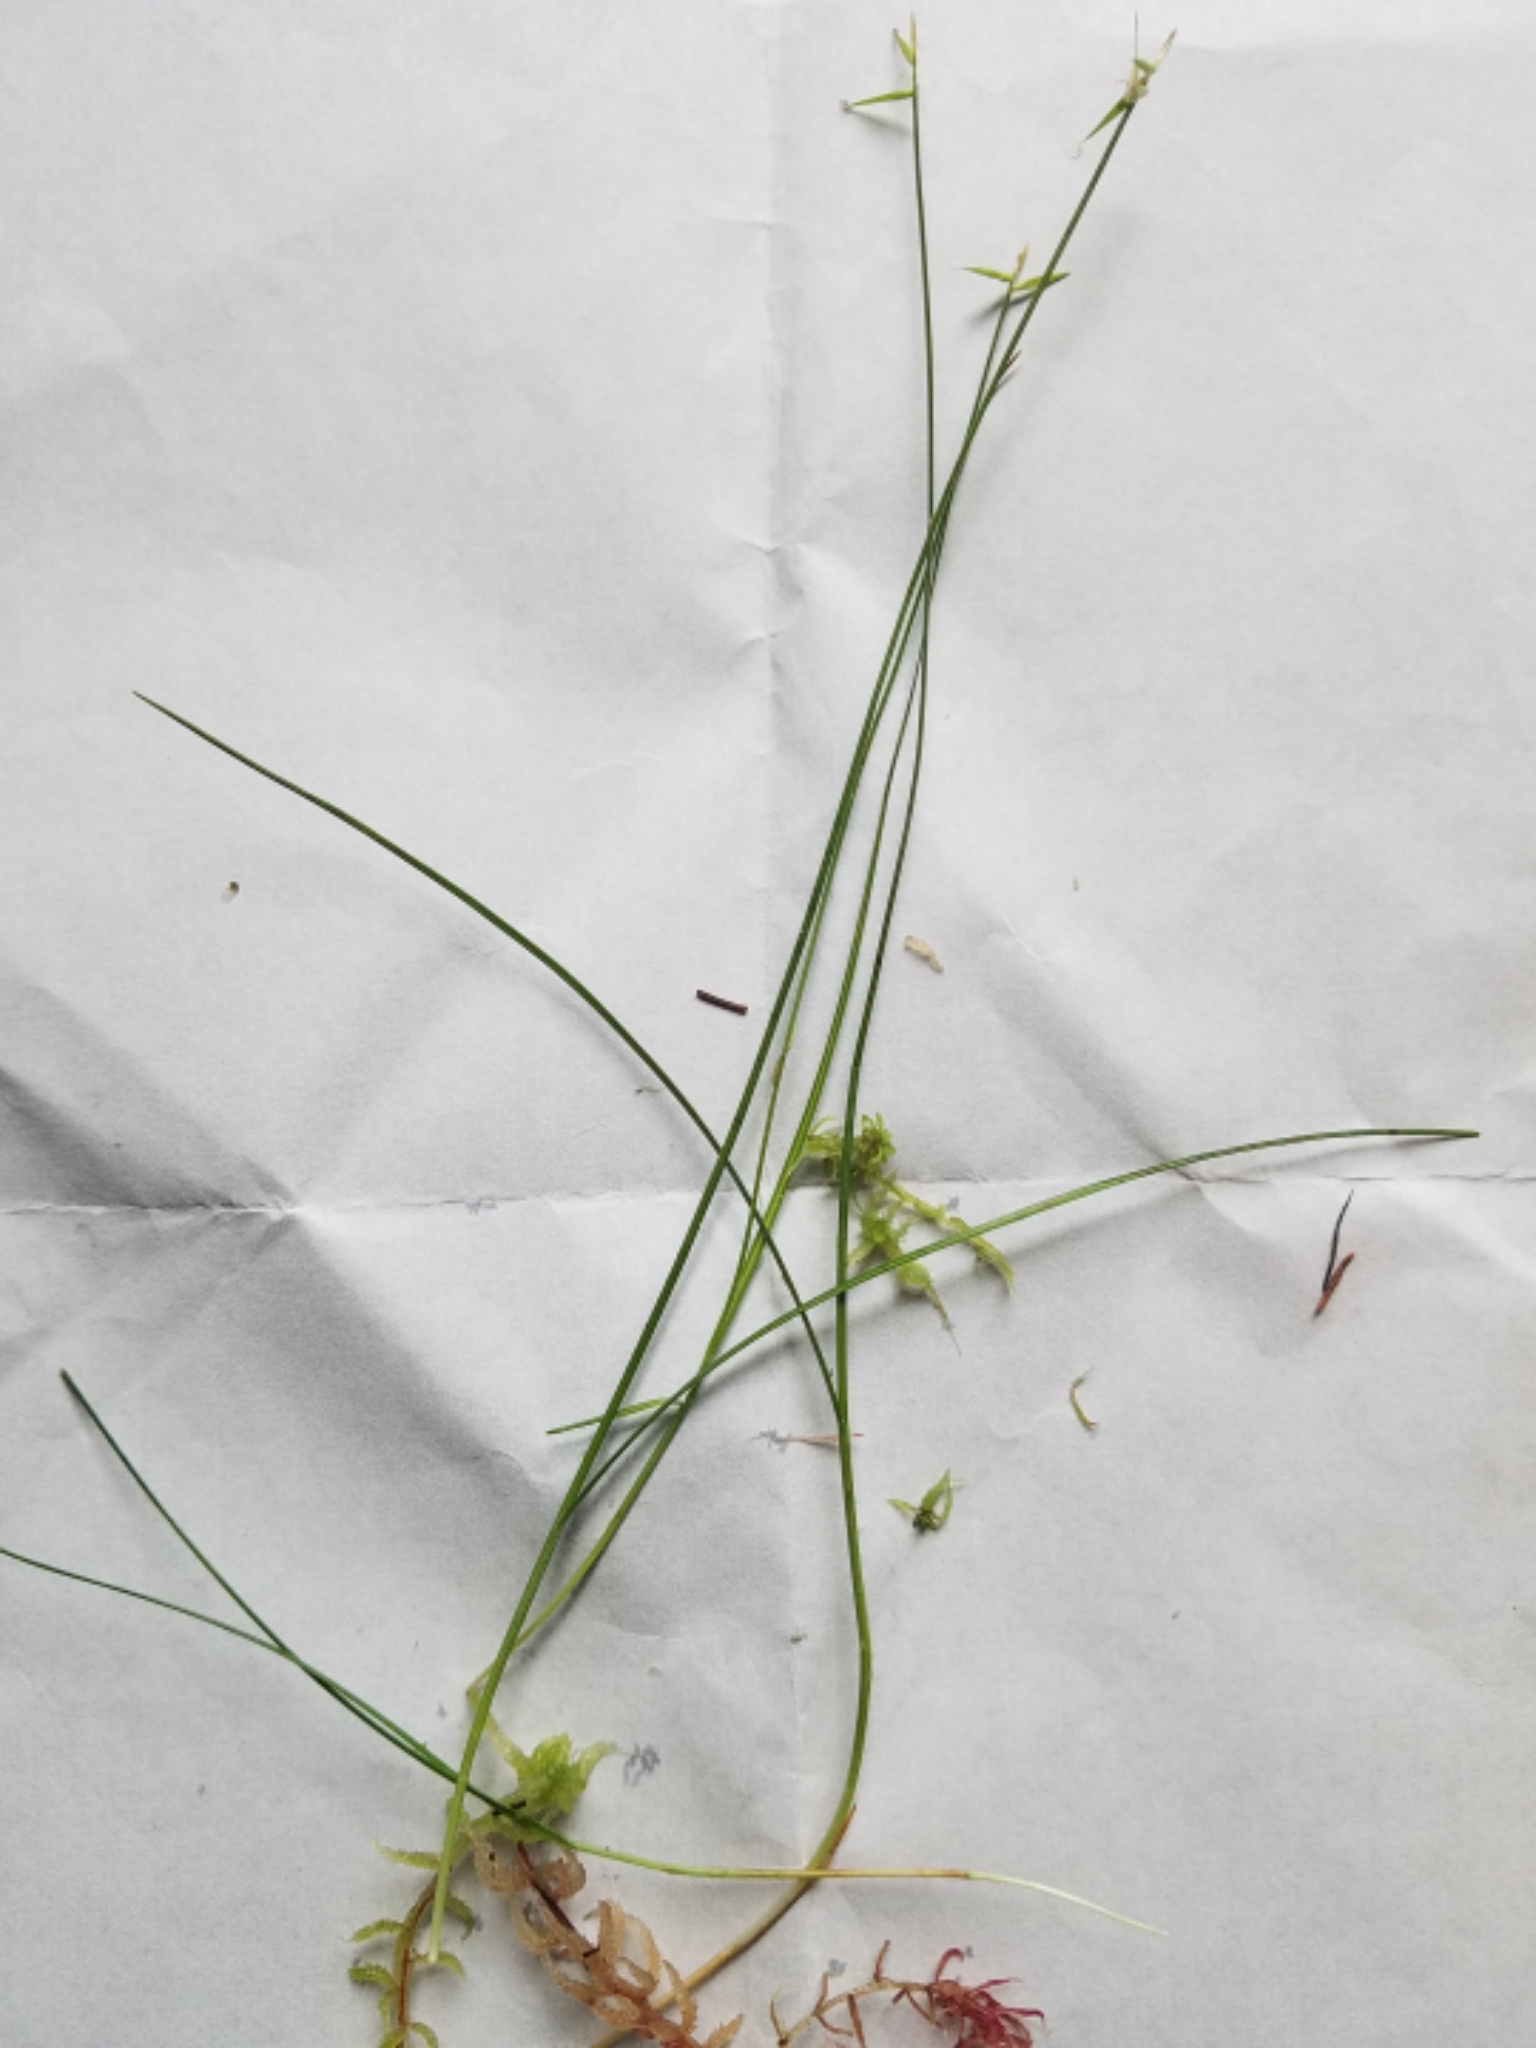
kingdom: Plantae
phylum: Tracheophyta
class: Liliopsida
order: Poales
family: Cyperaceae
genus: Carex
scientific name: Carex pauciflora
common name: Few-flowered sedge
